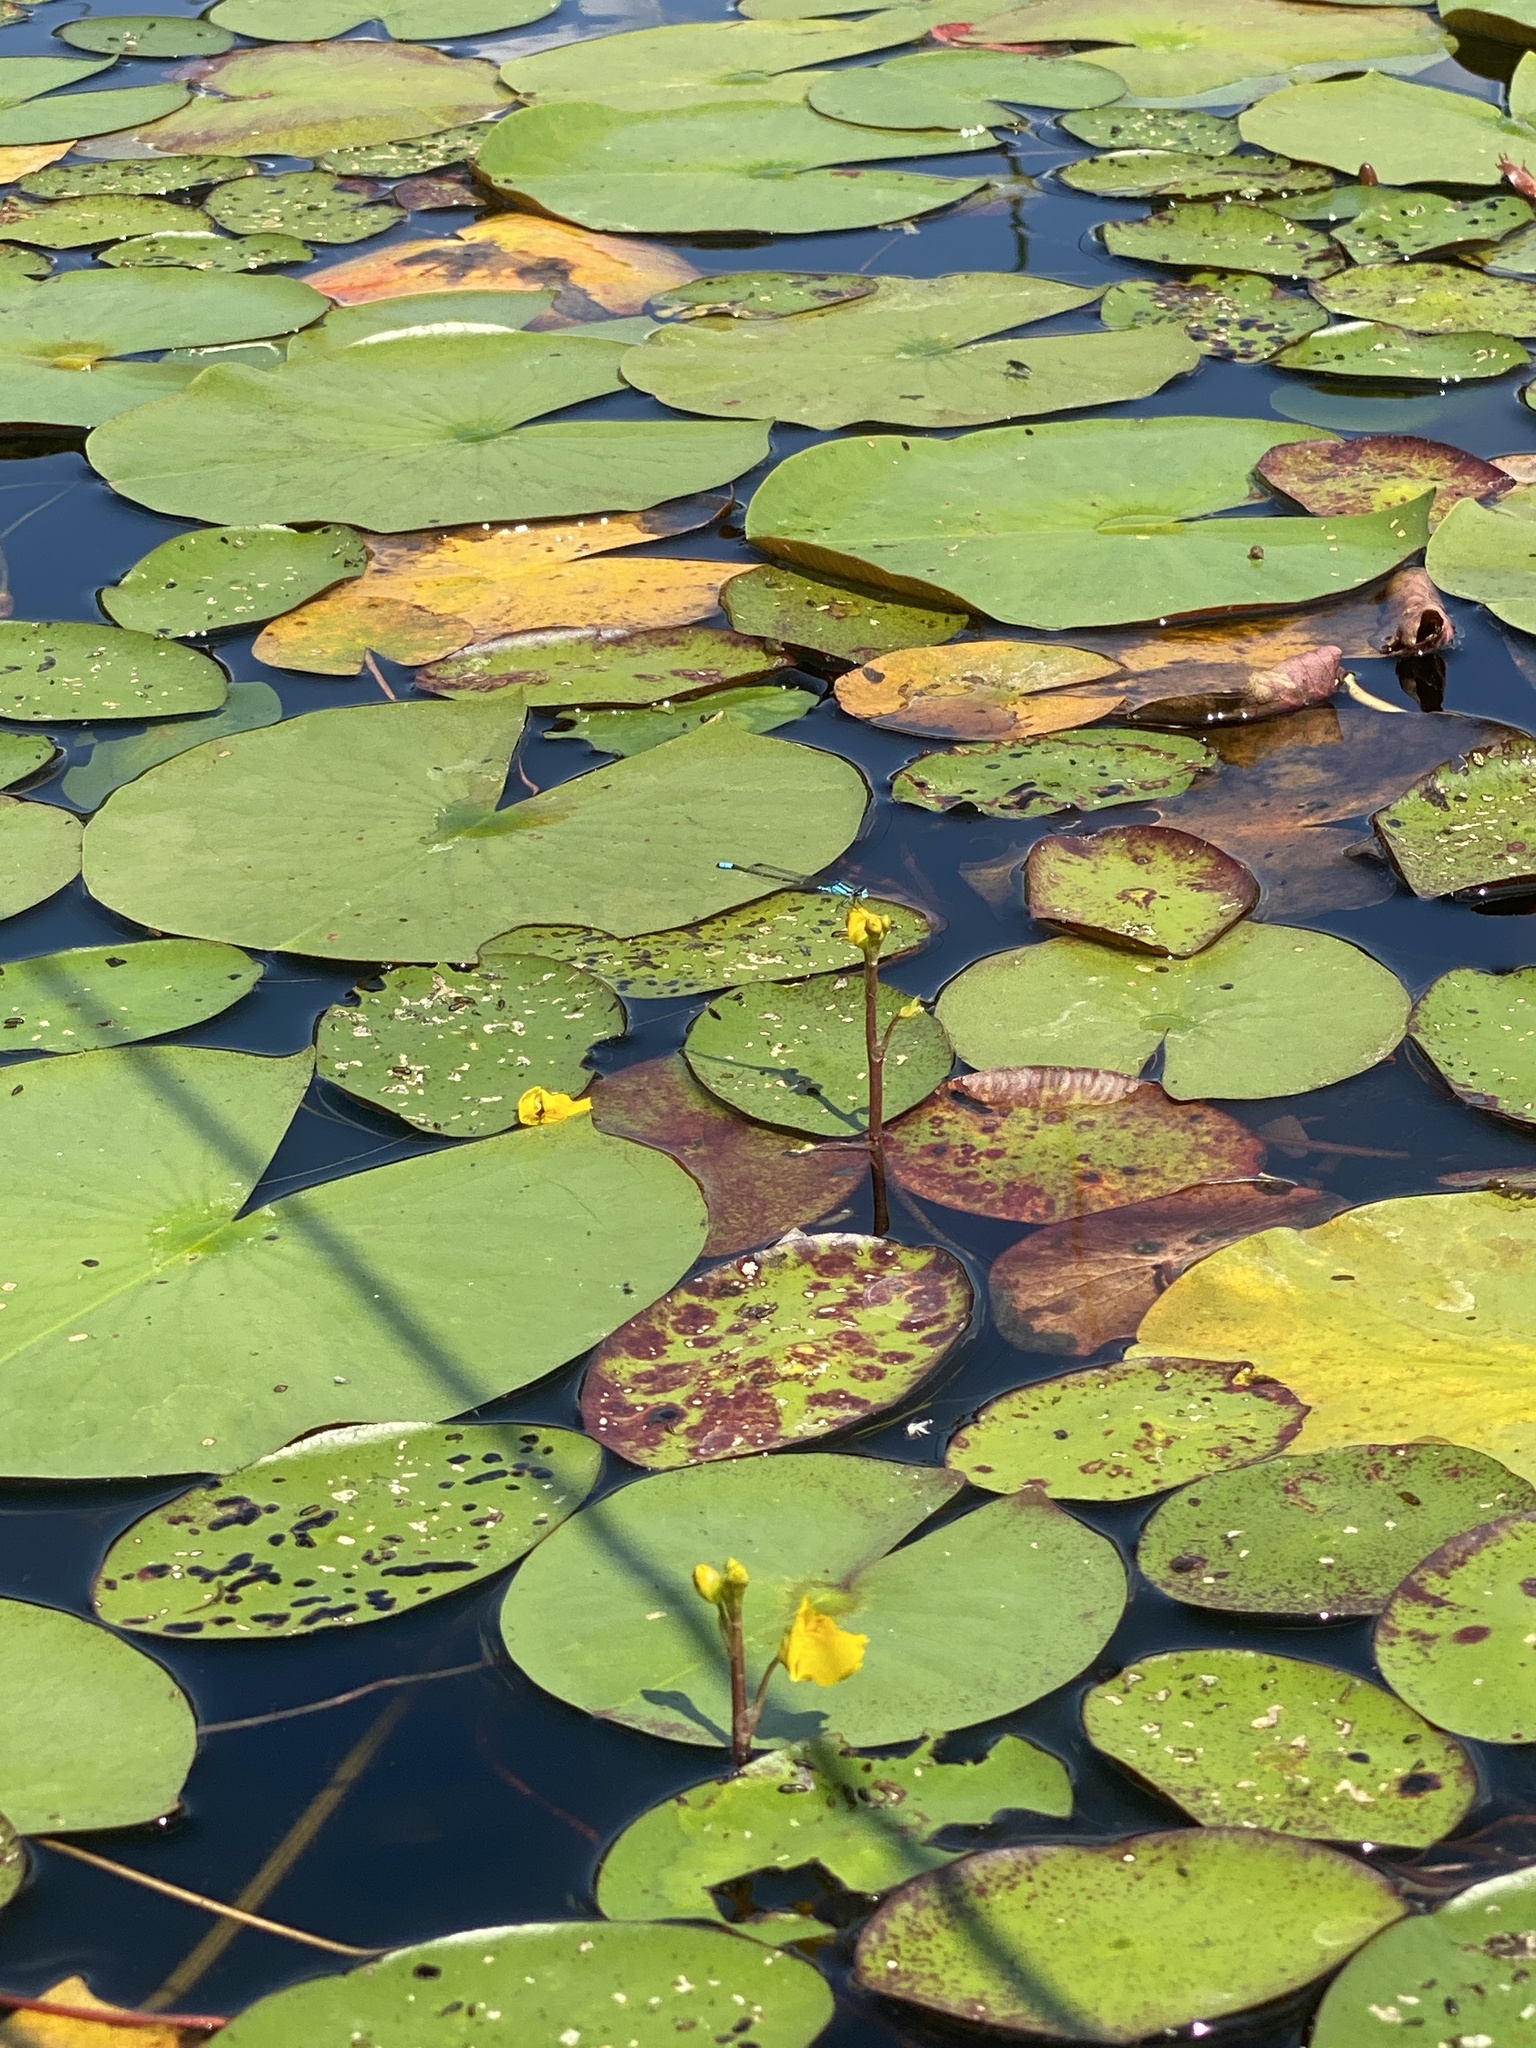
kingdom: Plantae
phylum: Tracheophyta
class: Magnoliopsida
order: Lamiales
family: Lentibulariaceae
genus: Utricularia
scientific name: Utricularia macrorhiza
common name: Common bladderwort
